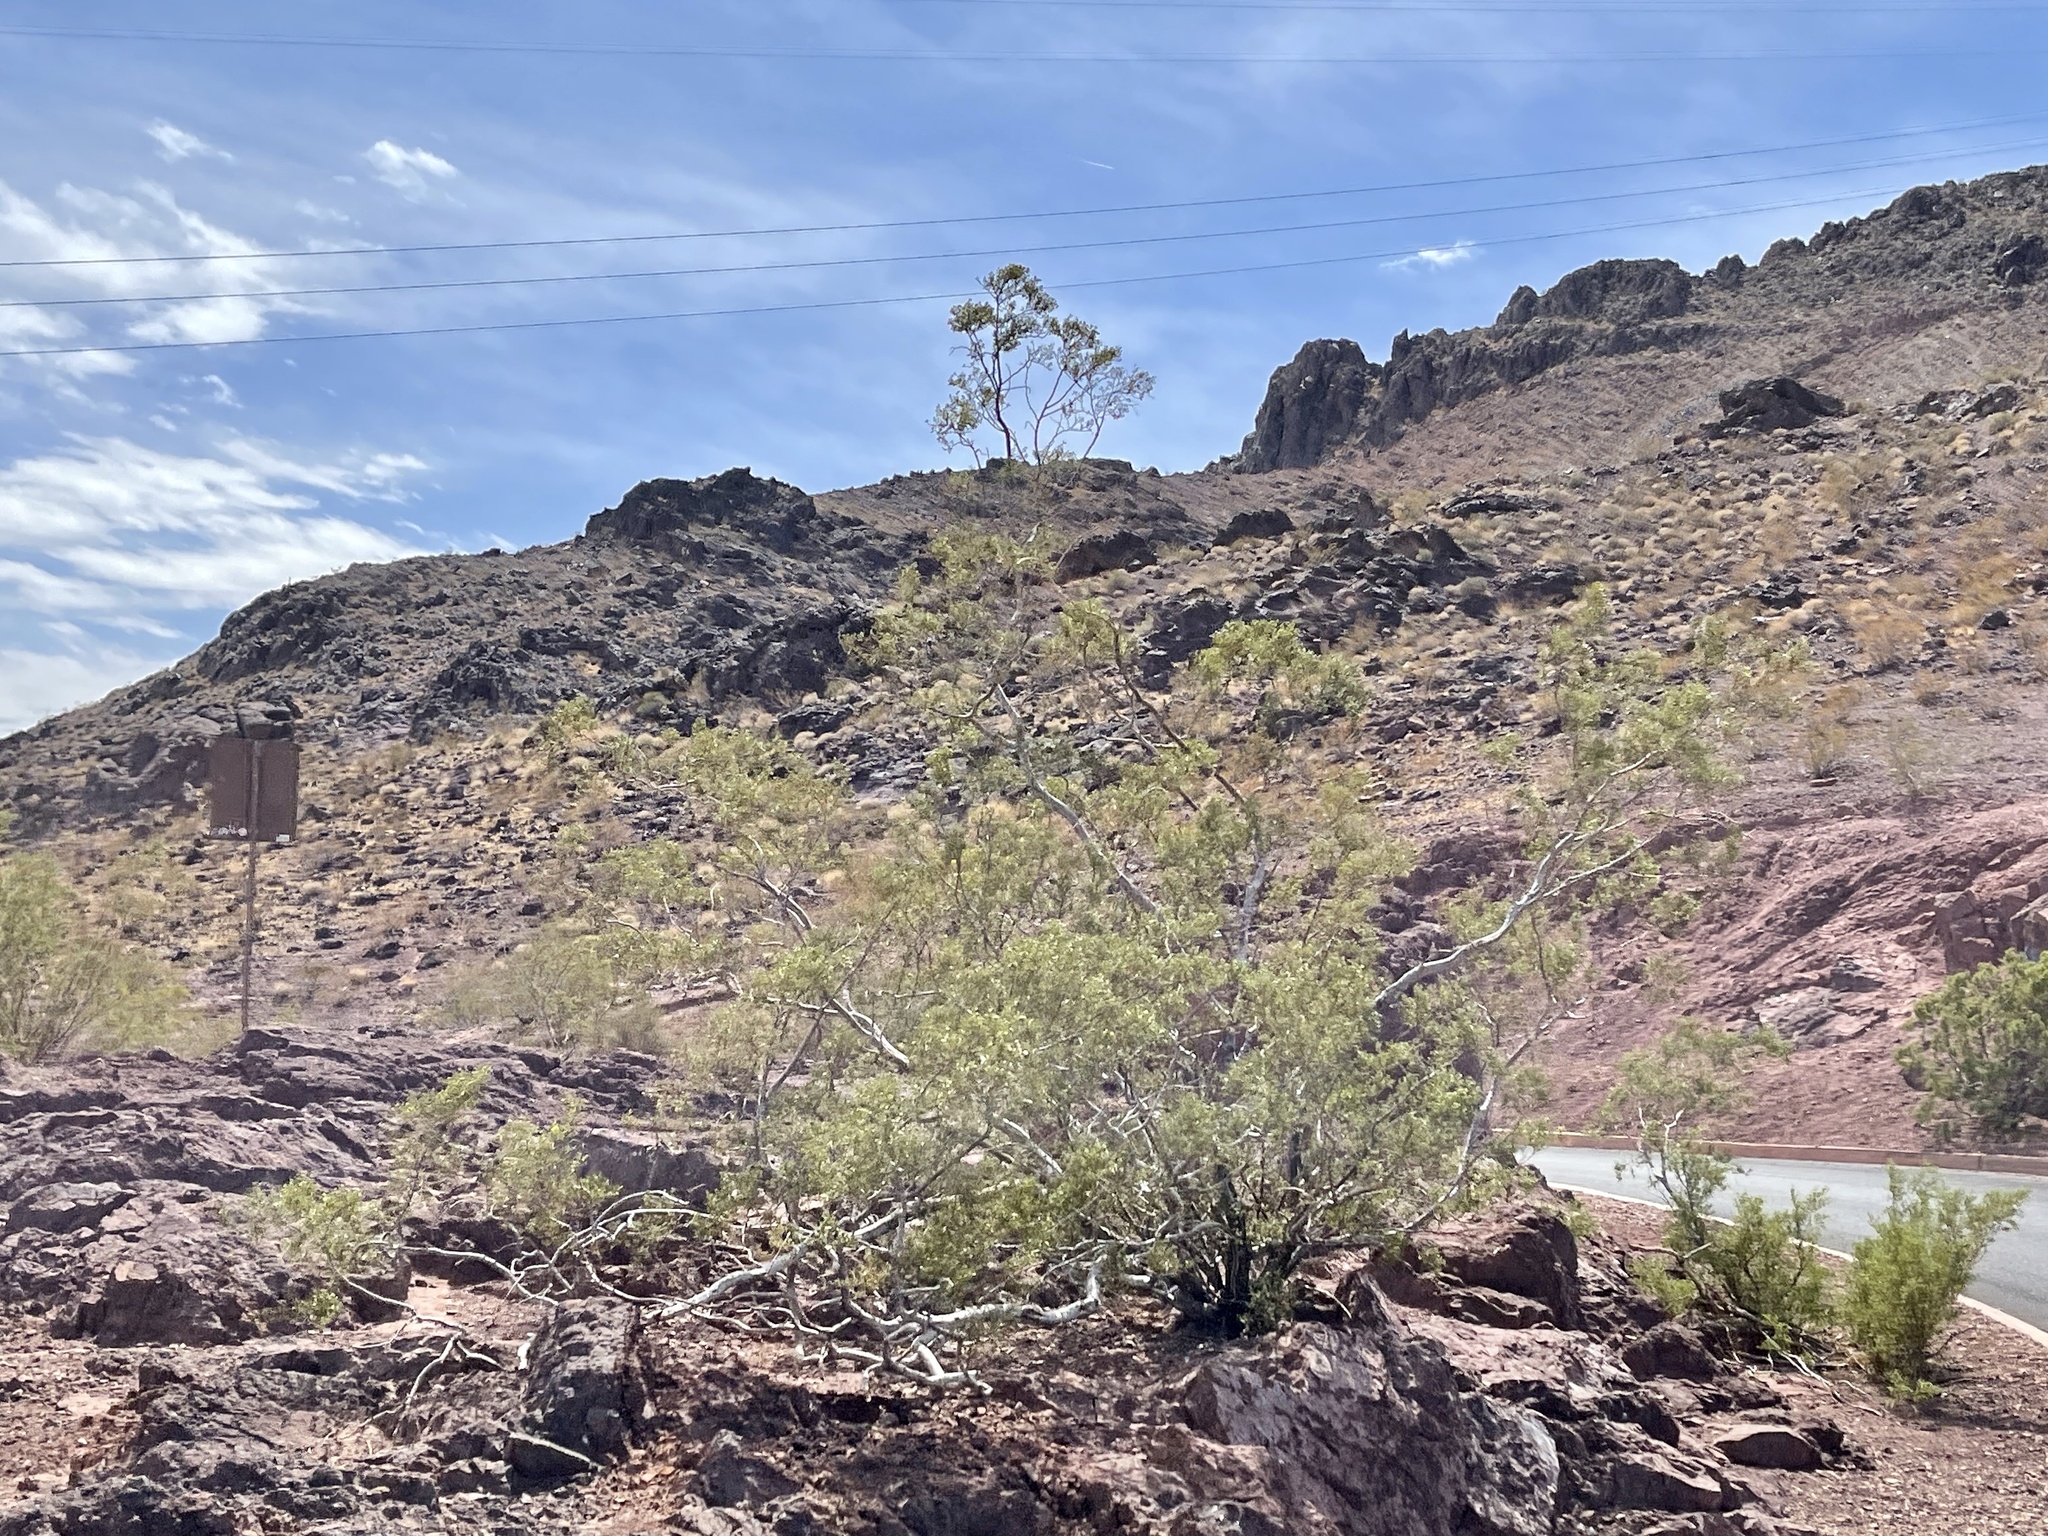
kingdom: Plantae
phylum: Tracheophyta
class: Magnoliopsida
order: Zygophyllales
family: Zygophyllaceae
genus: Larrea
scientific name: Larrea tridentata
